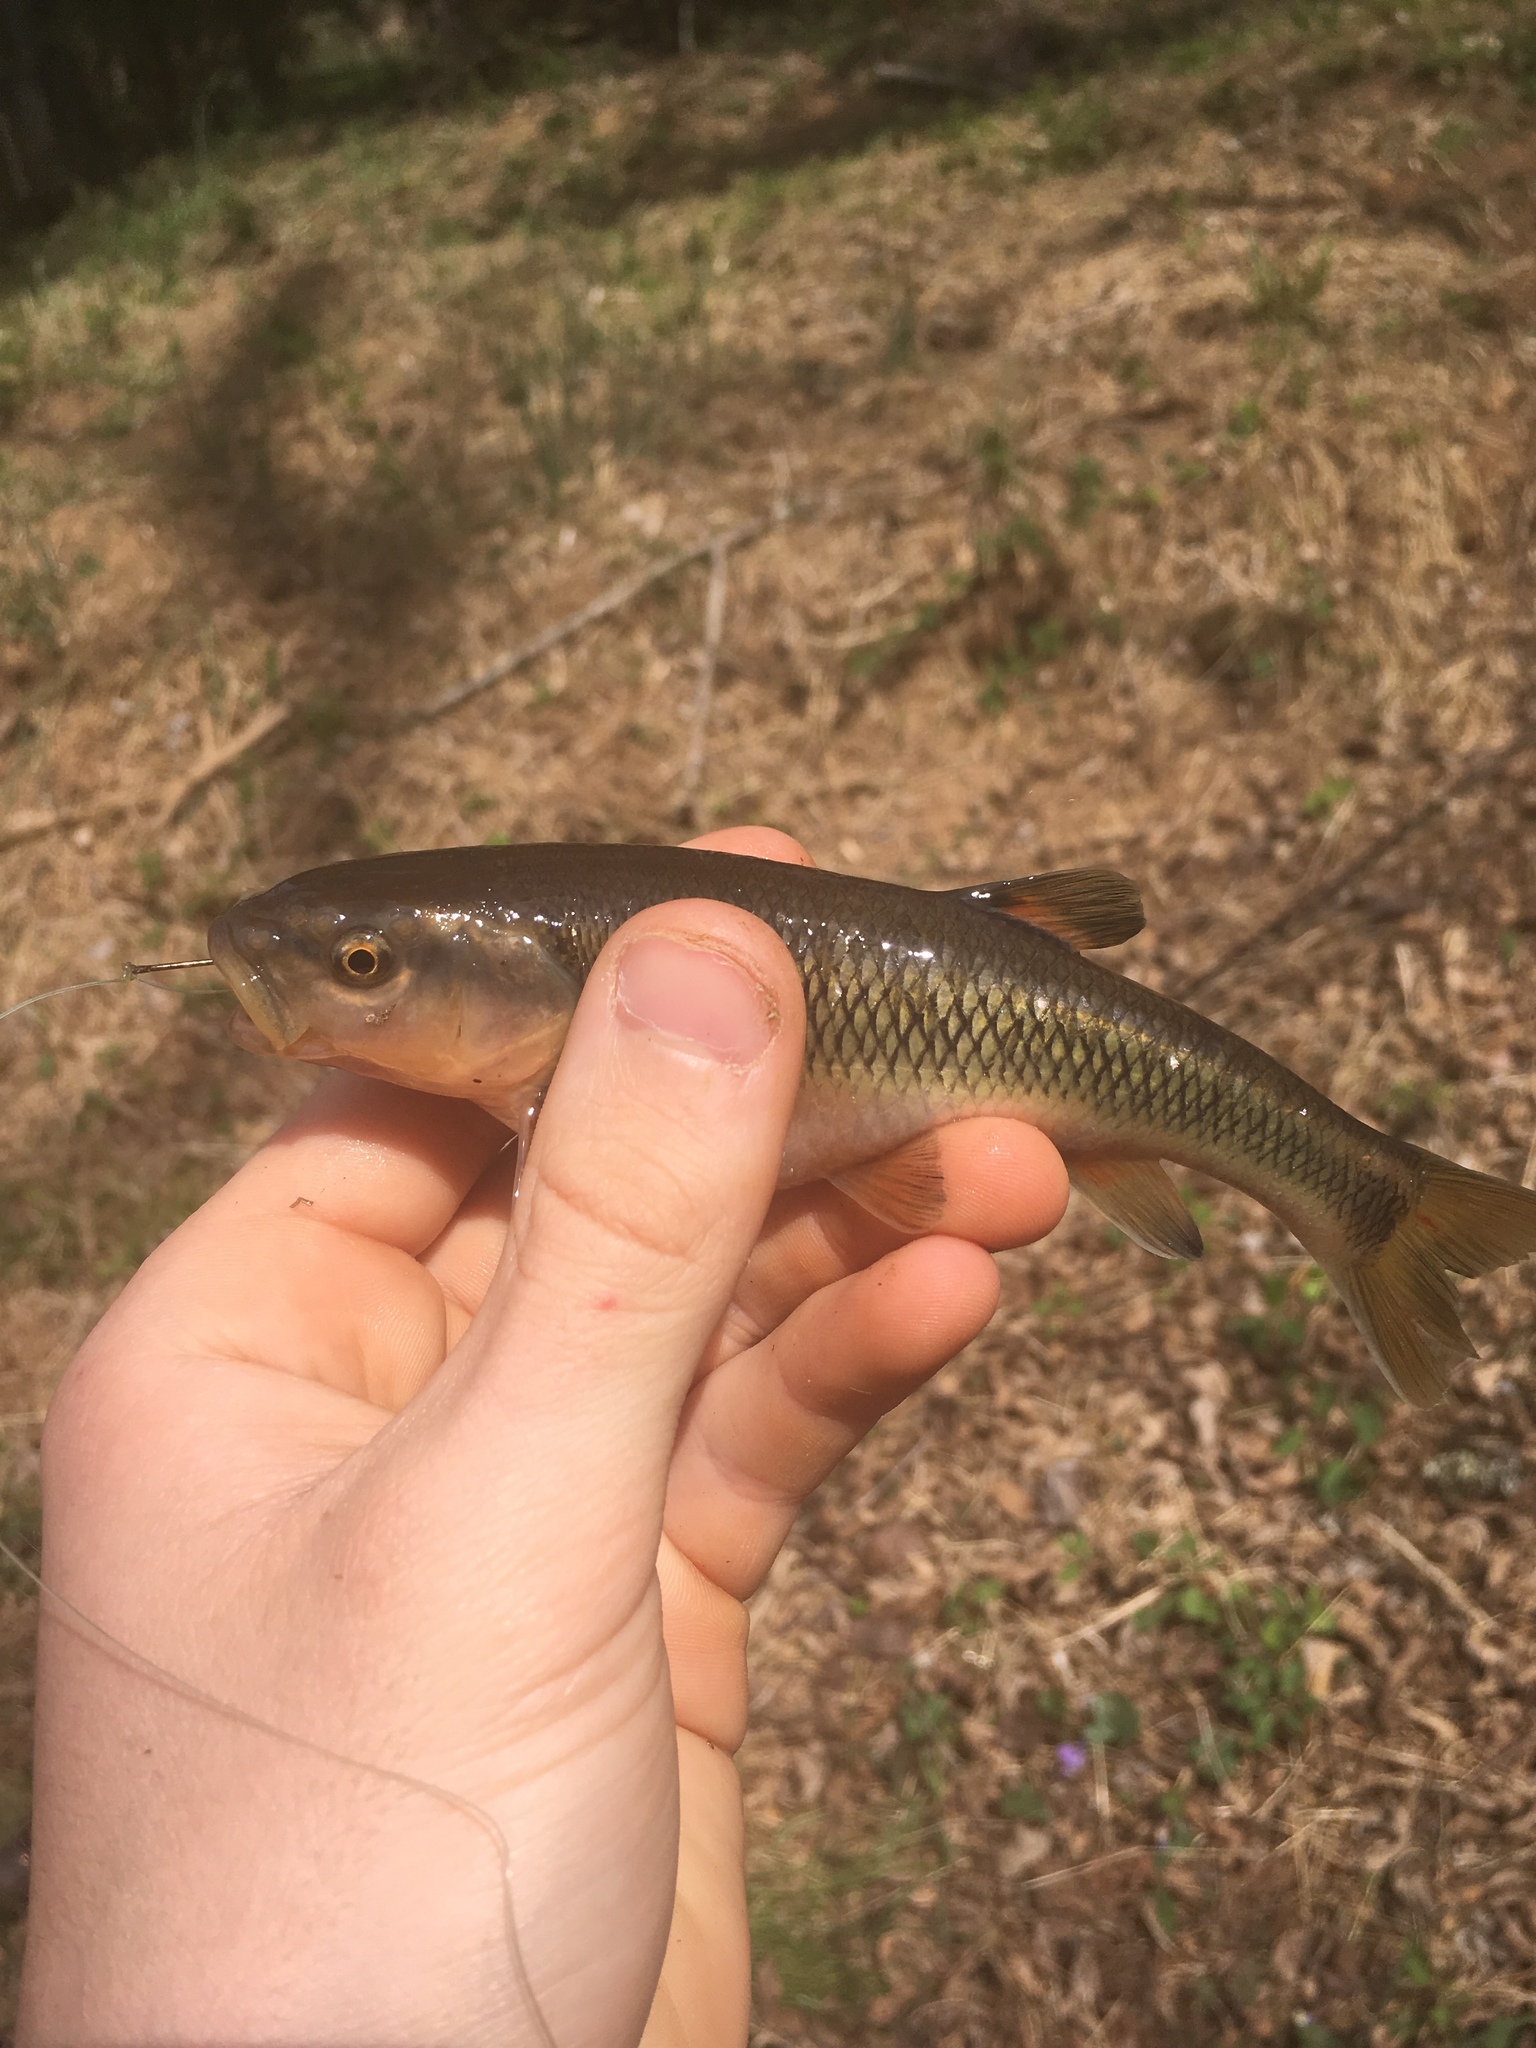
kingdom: Animalia
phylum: Chordata
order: Cypriniformes
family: Cyprinidae
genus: Semotilus
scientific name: Semotilus atromaculatus
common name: Creek chub
